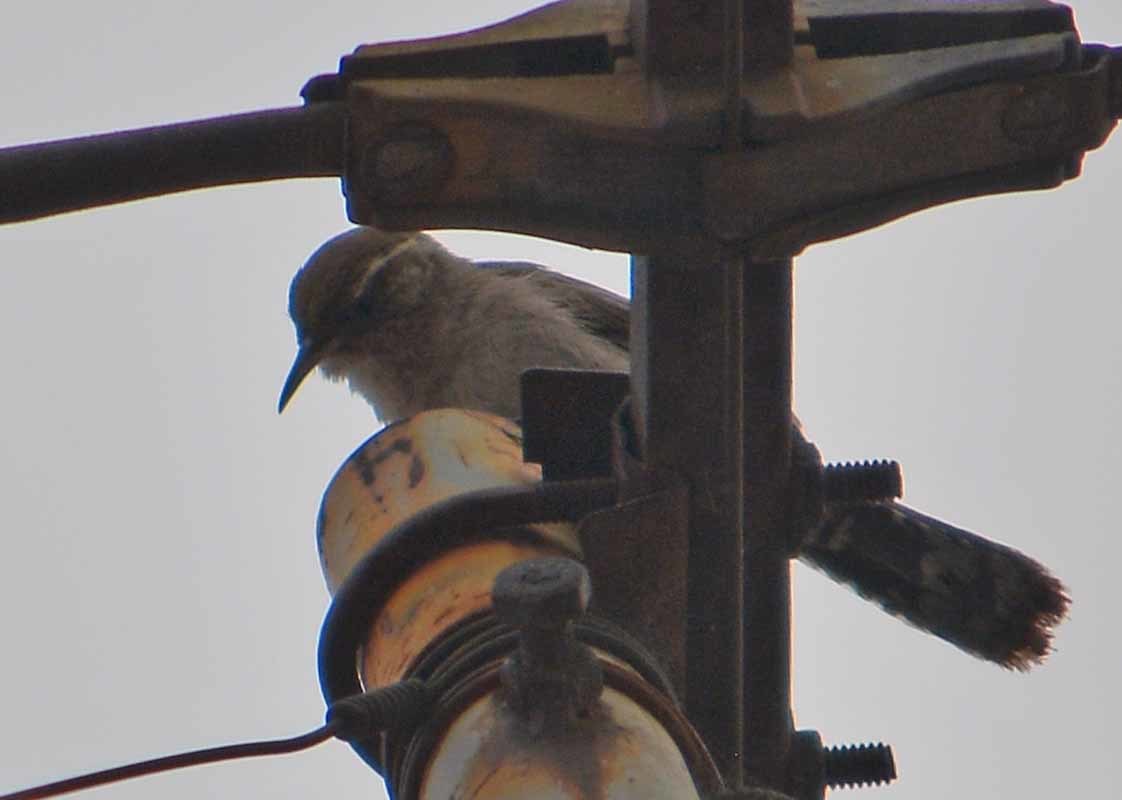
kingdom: Animalia
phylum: Chordata
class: Aves
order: Passeriformes
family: Troglodytidae
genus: Thryomanes
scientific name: Thryomanes bewickii
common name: Bewick's wren
